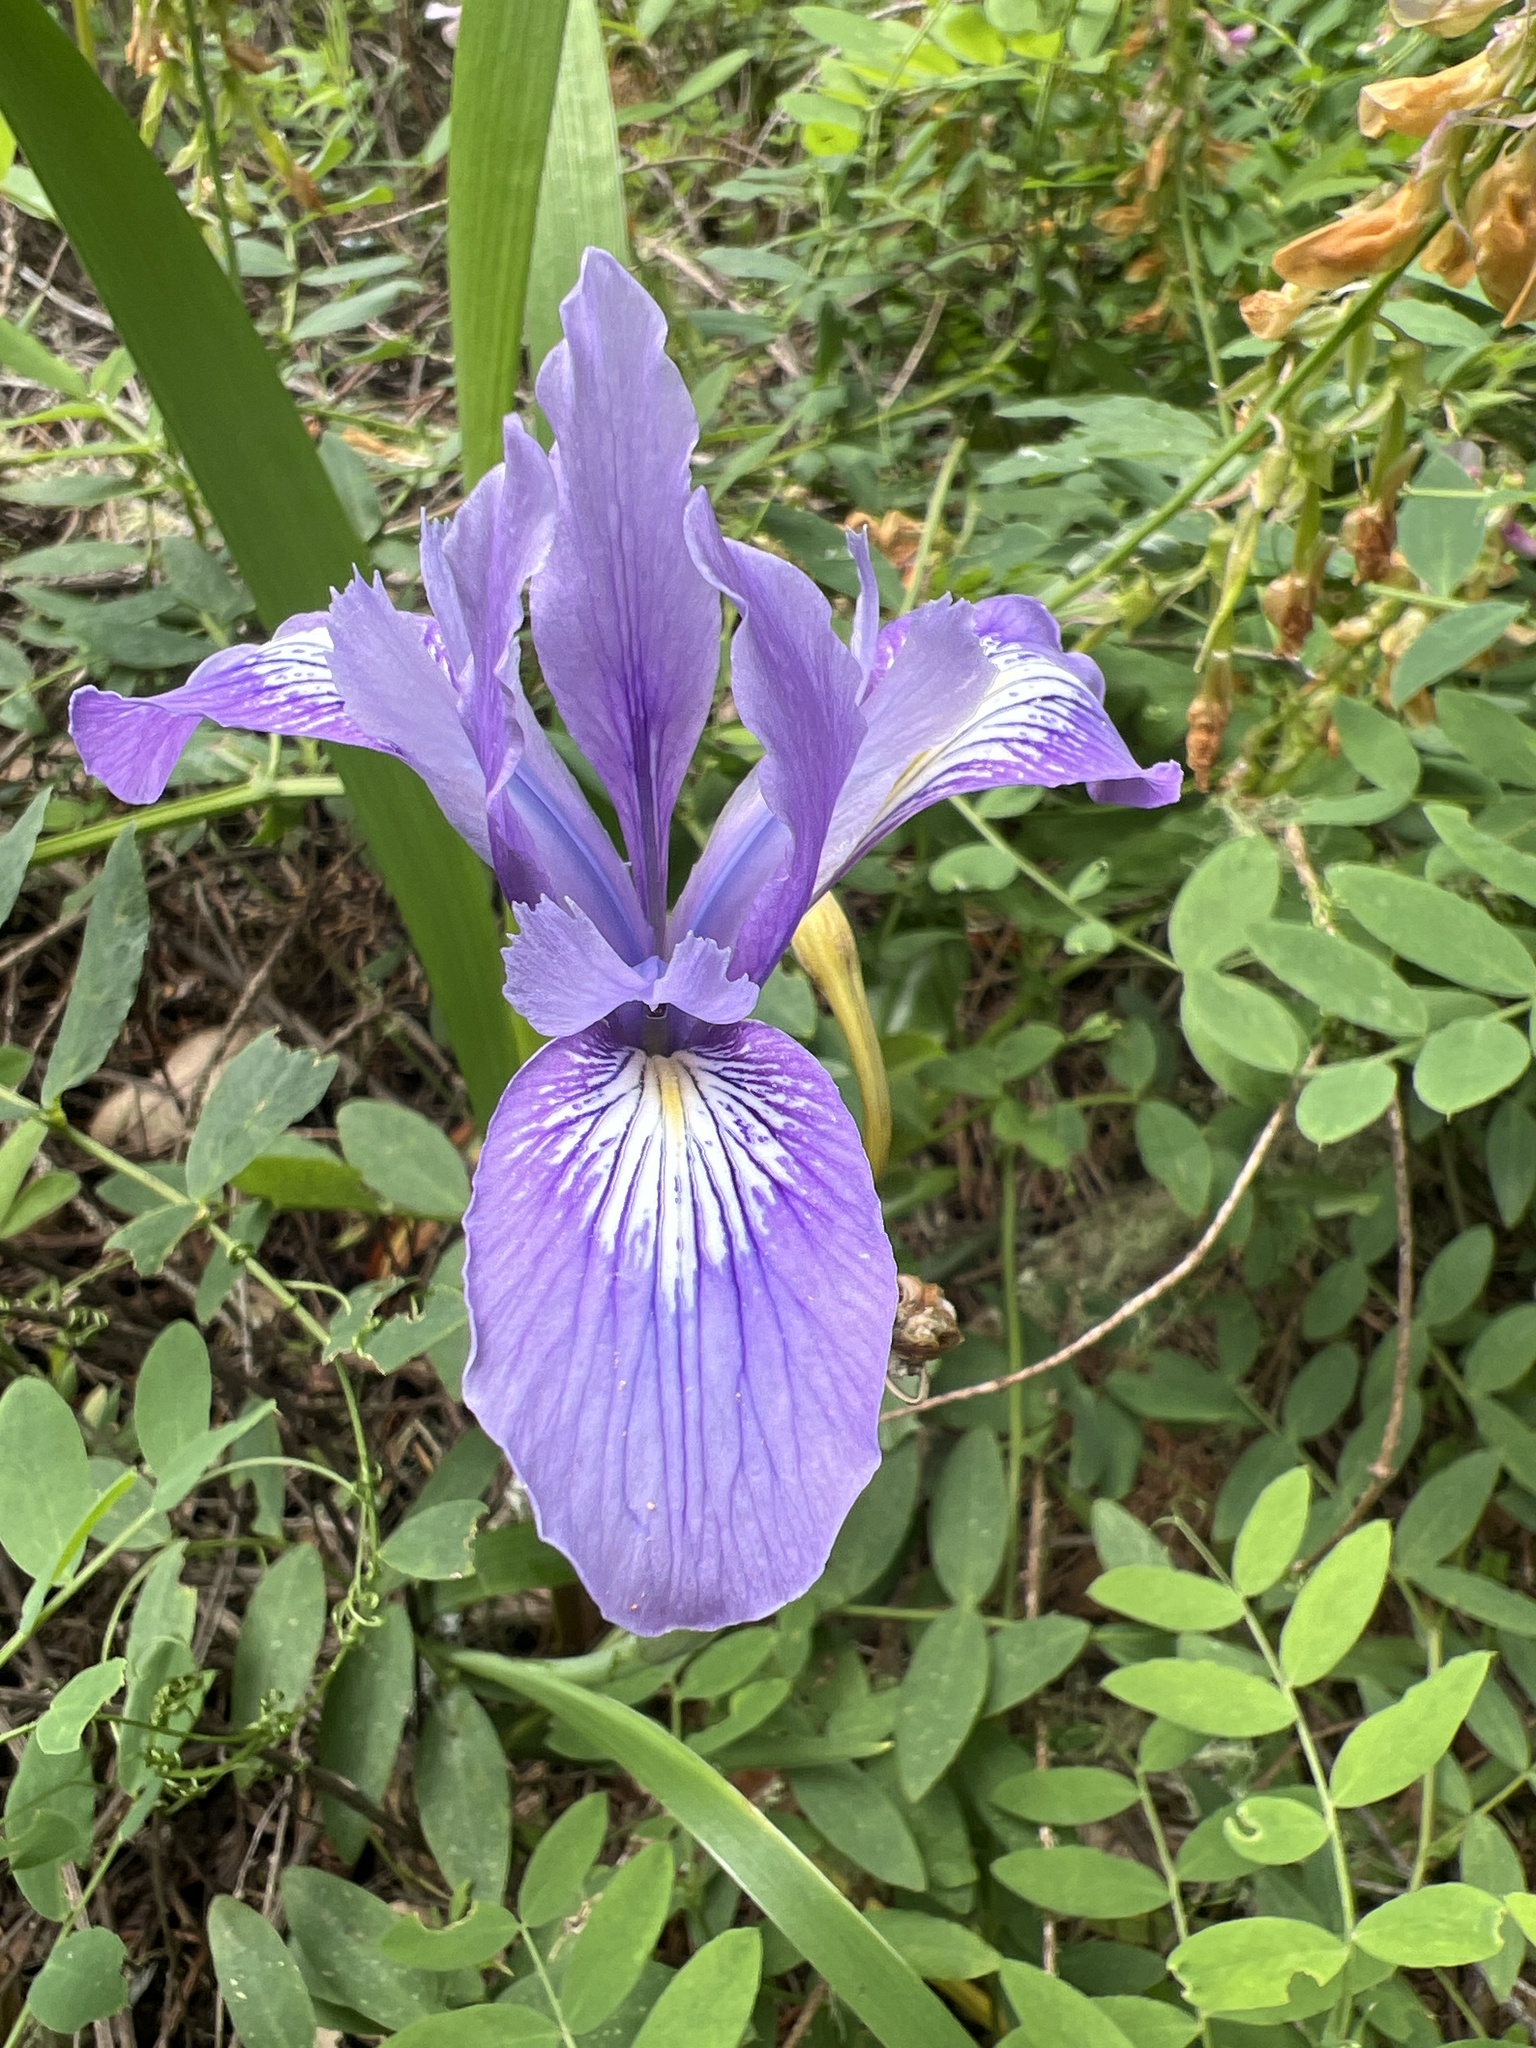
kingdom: Plantae
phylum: Tracheophyta
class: Liliopsida
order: Asparagales
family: Iridaceae
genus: Iris
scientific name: Iris douglasiana
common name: Marin iris
